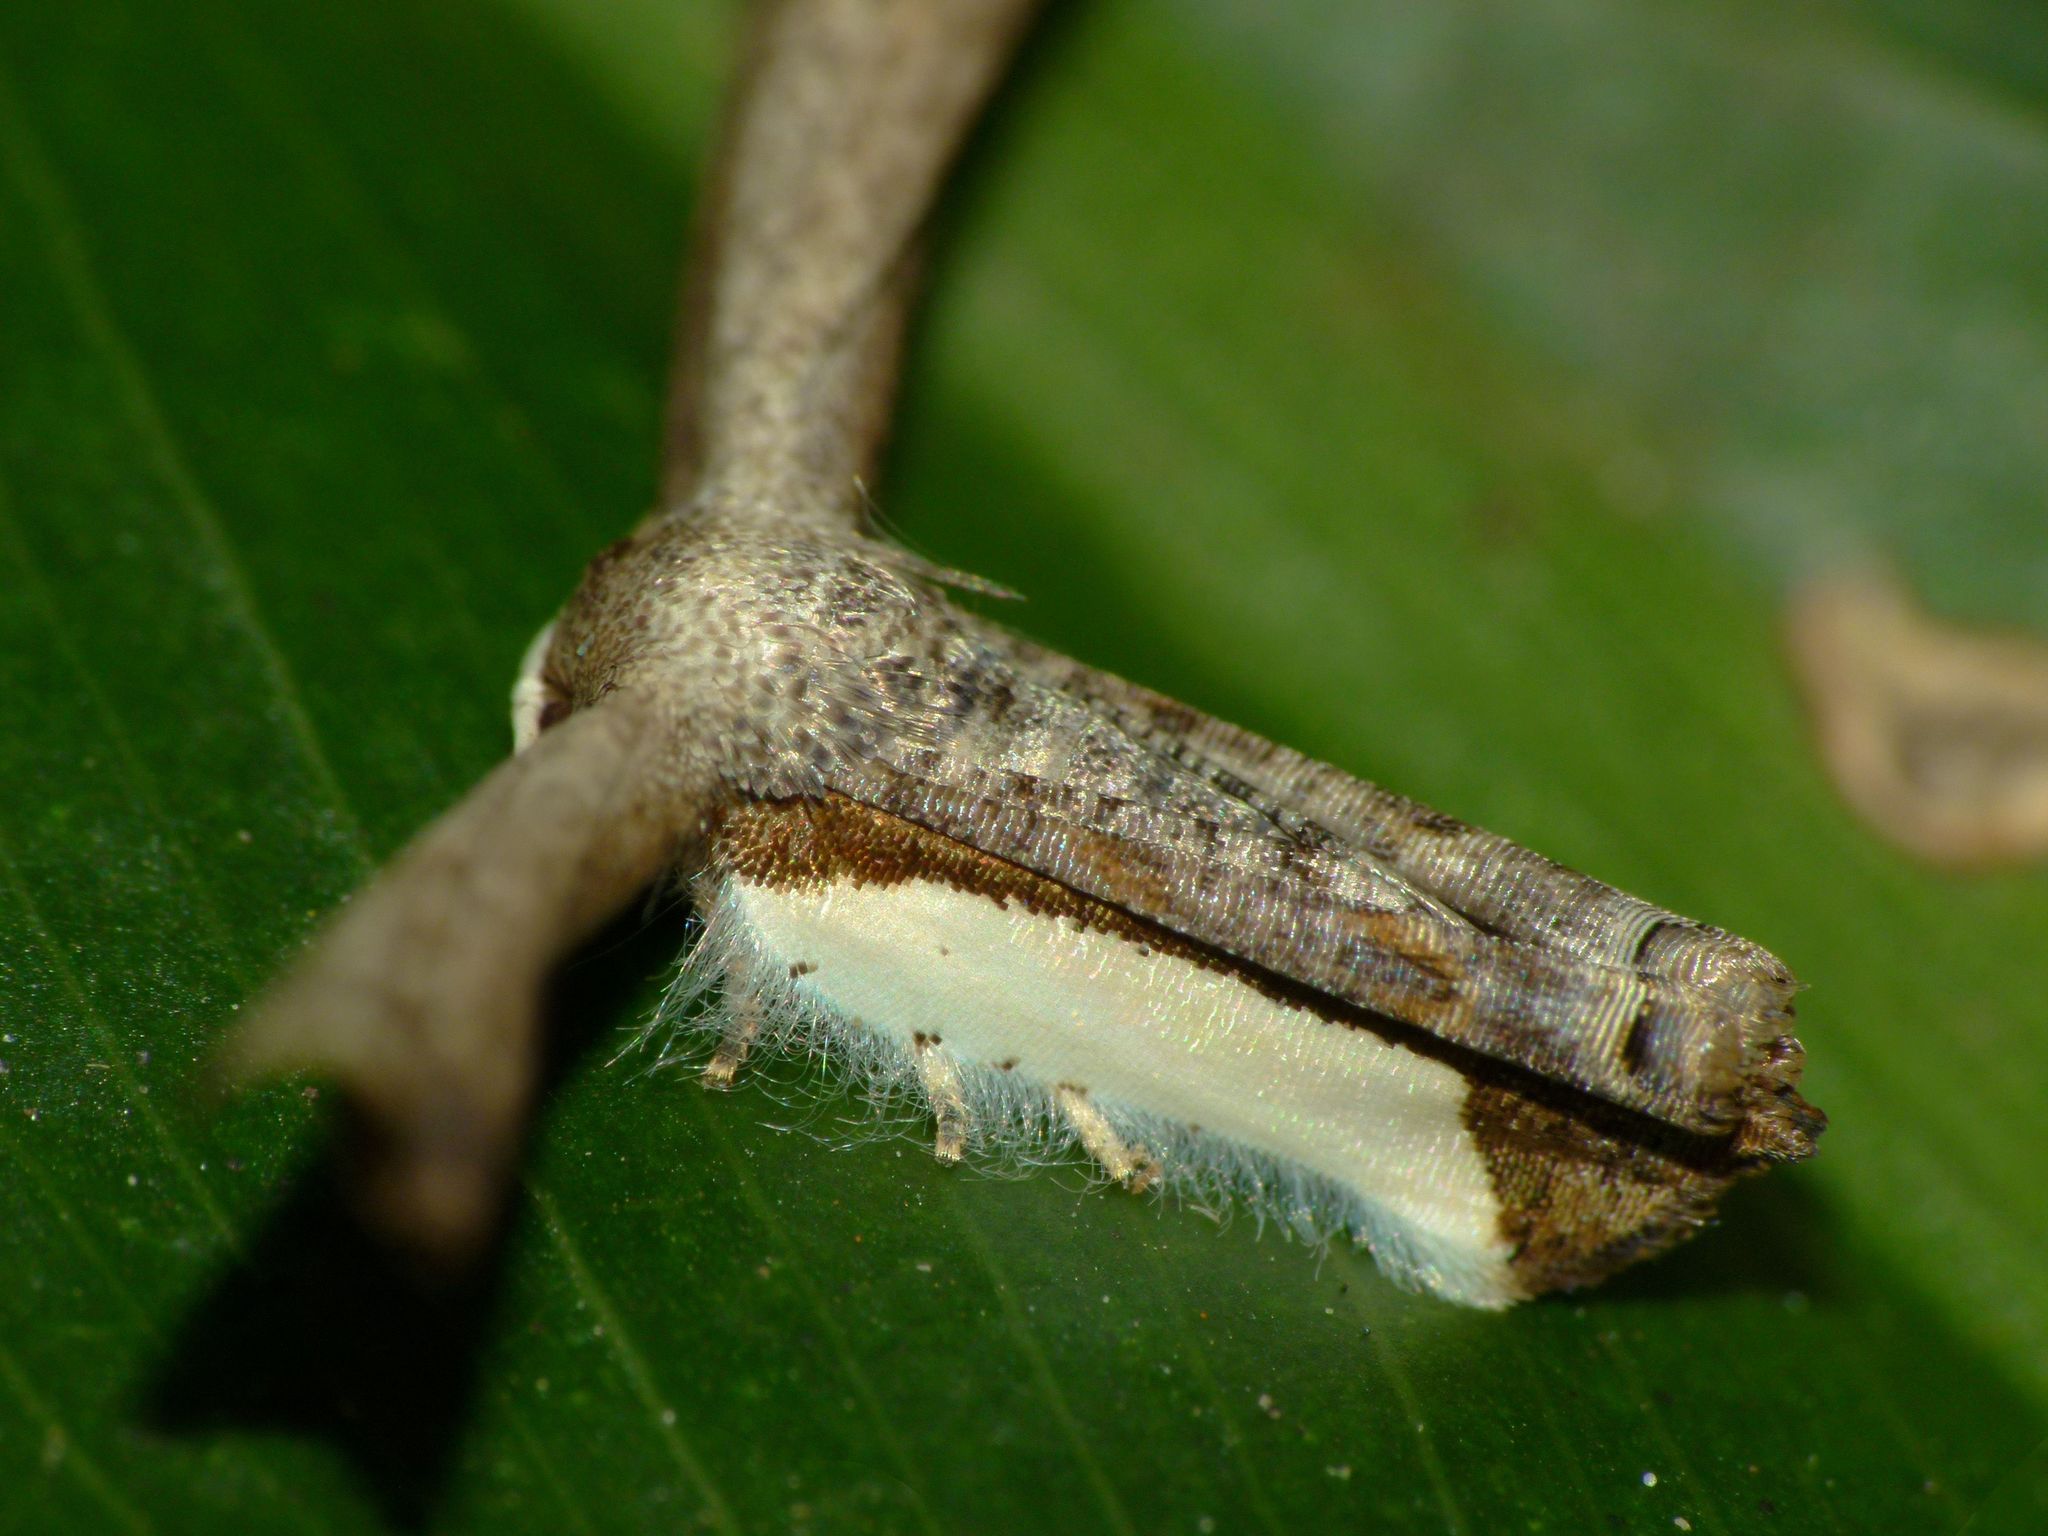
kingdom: Animalia
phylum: Arthropoda
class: Insecta
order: Lepidoptera
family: Uraniidae
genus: Phazaca
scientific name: Phazaca decorata
